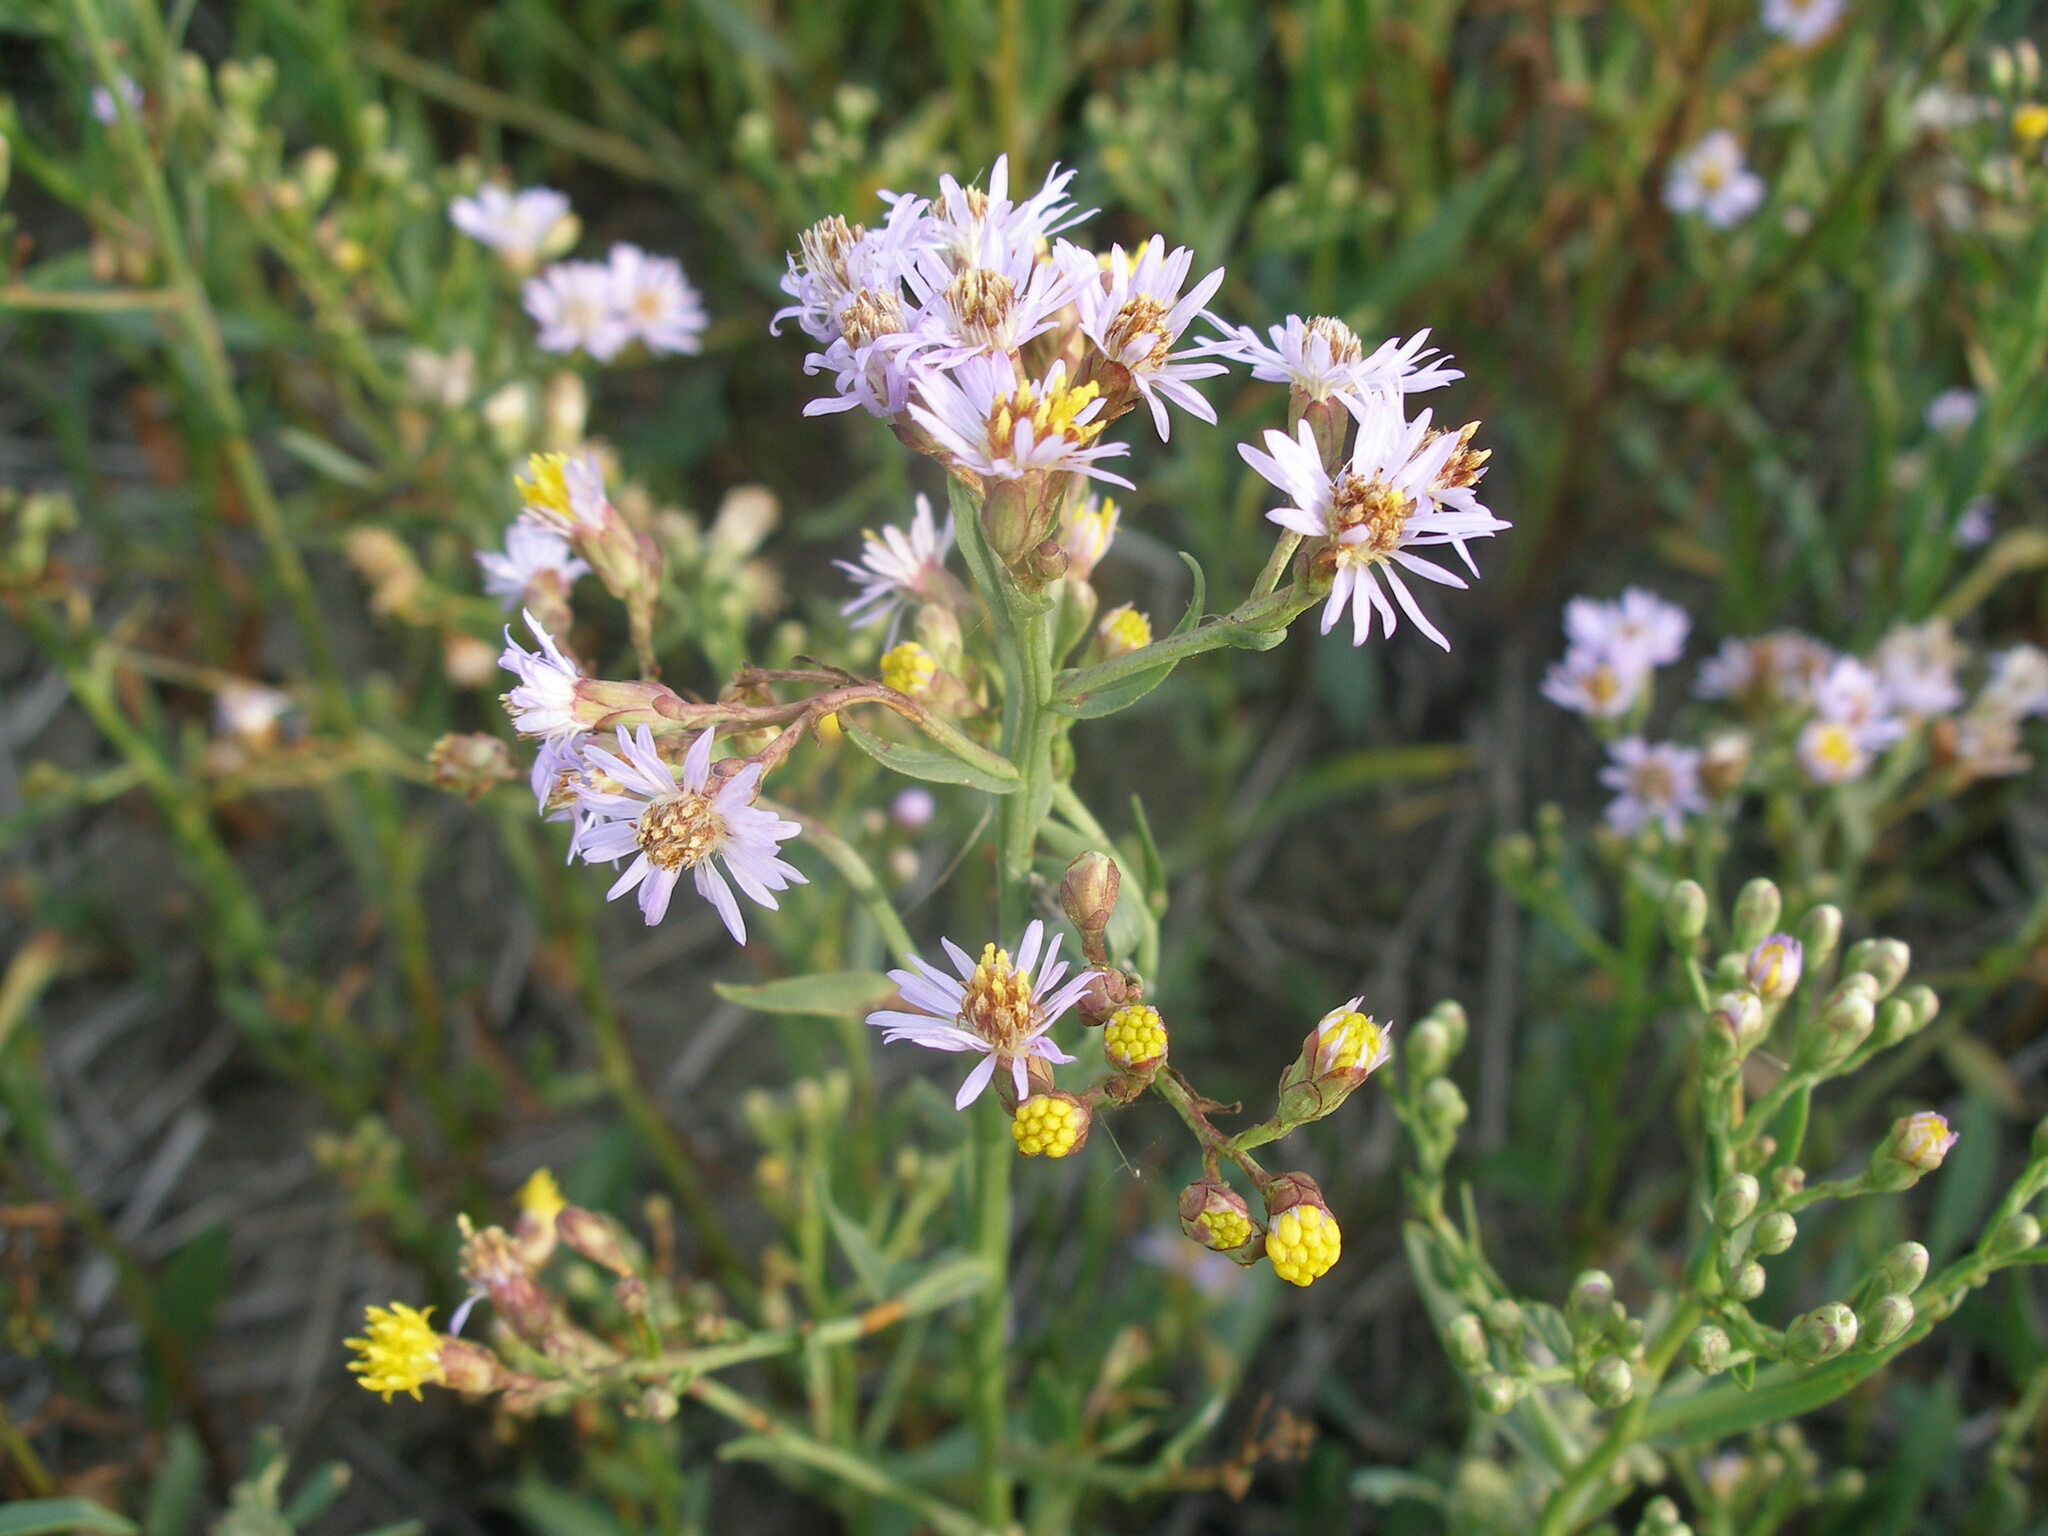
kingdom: Plantae
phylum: Tracheophyta
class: Magnoliopsida
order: Asterales
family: Asteraceae
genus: Tripolium
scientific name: Tripolium pannonicum
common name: Sea aster
